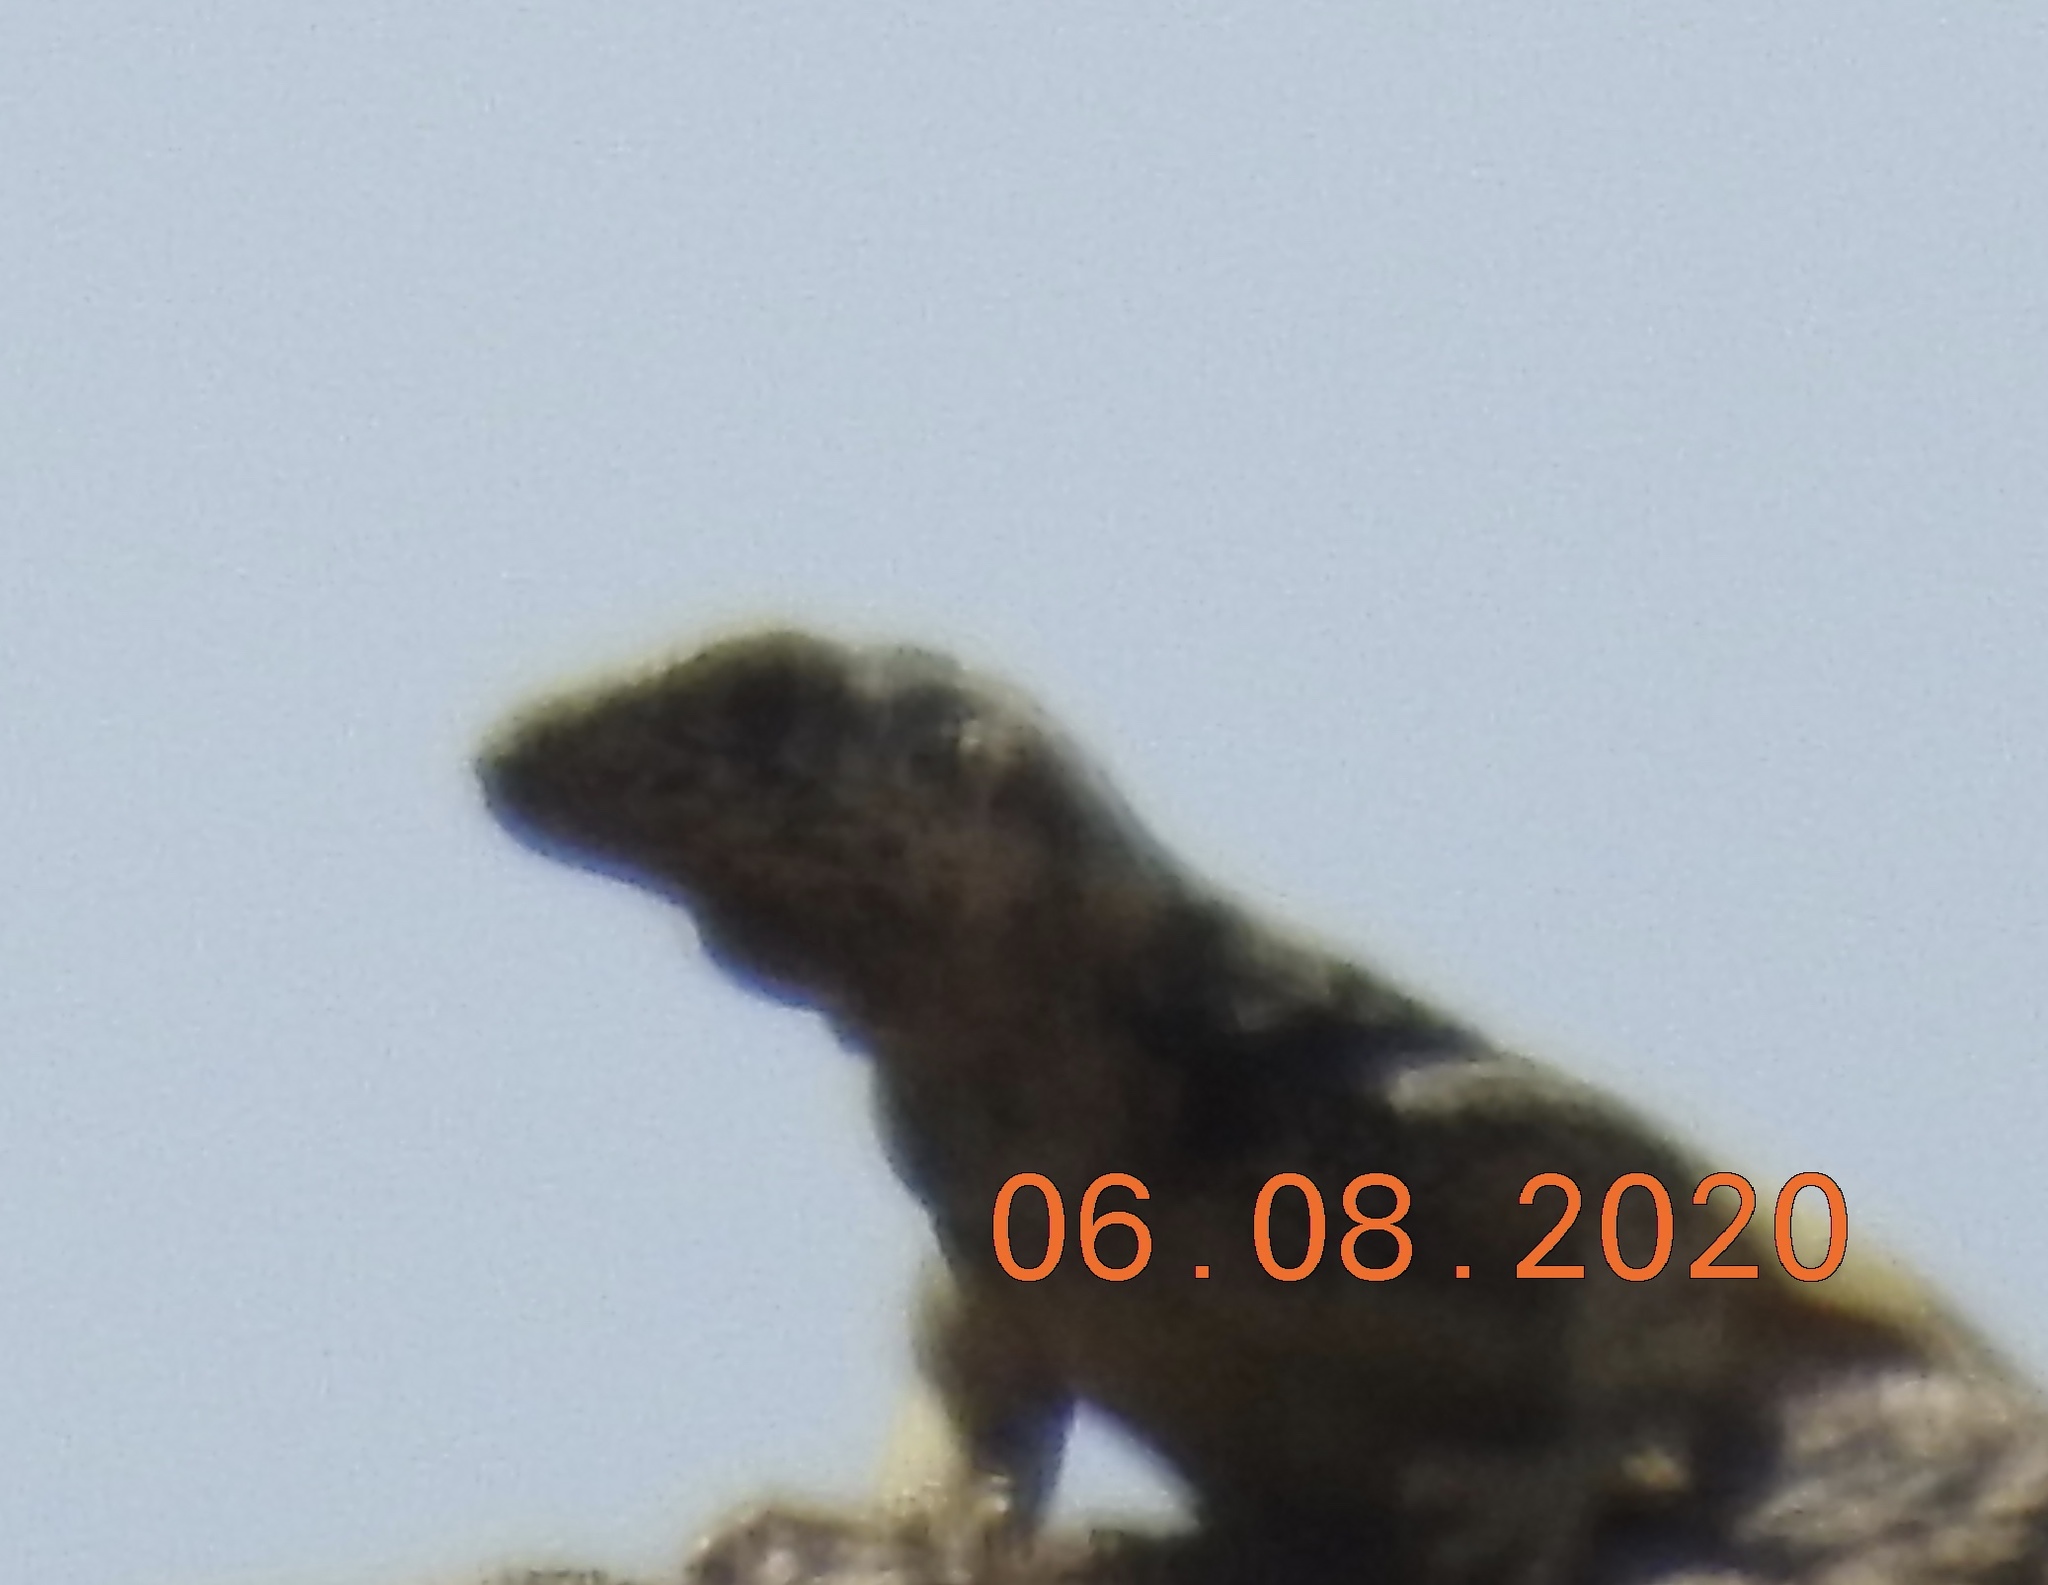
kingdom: Animalia
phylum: Chordata
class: Squamata
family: Iguanidae
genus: Sauromalus
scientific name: Sauromalus ater
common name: Northern chuckwalla
